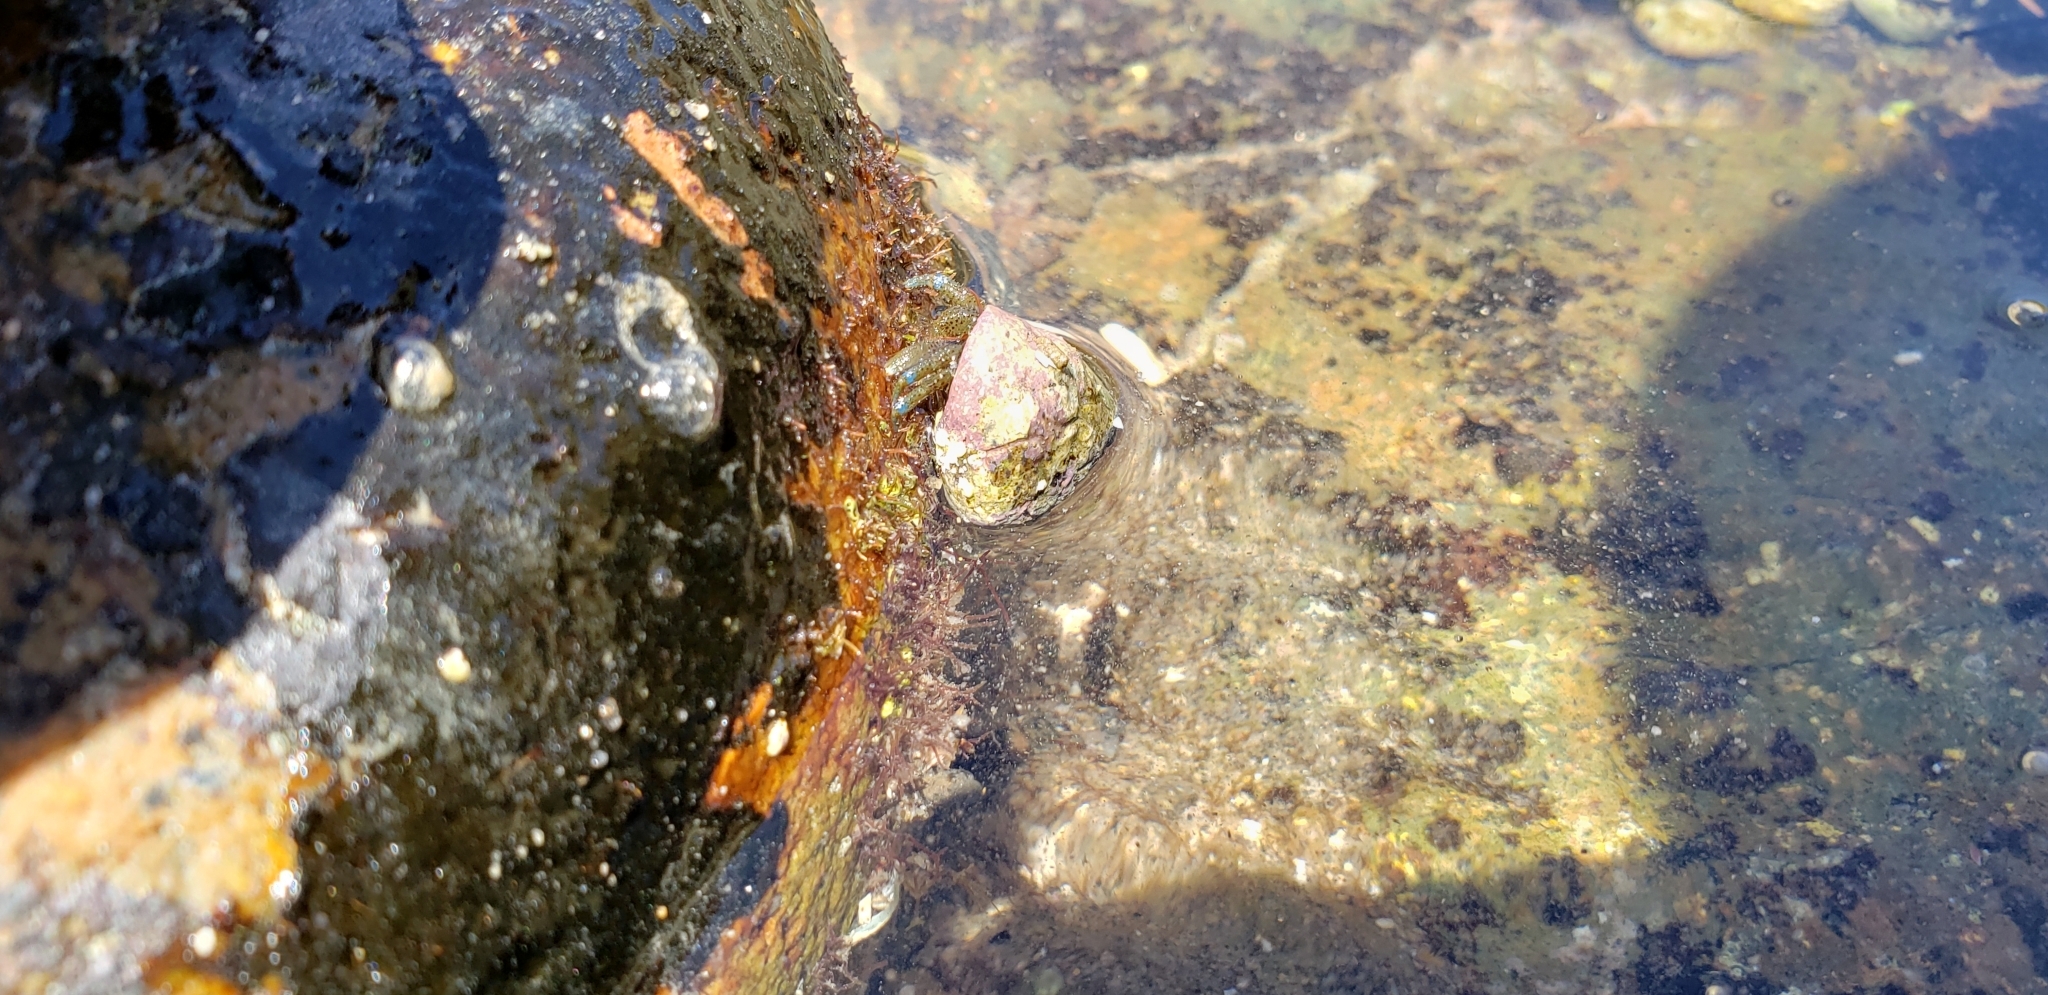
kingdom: Animalia
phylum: Arthropoda
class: Malacostraca
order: Decapoda
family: Paguridae
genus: Pagurus
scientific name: Pagurus samuelis
